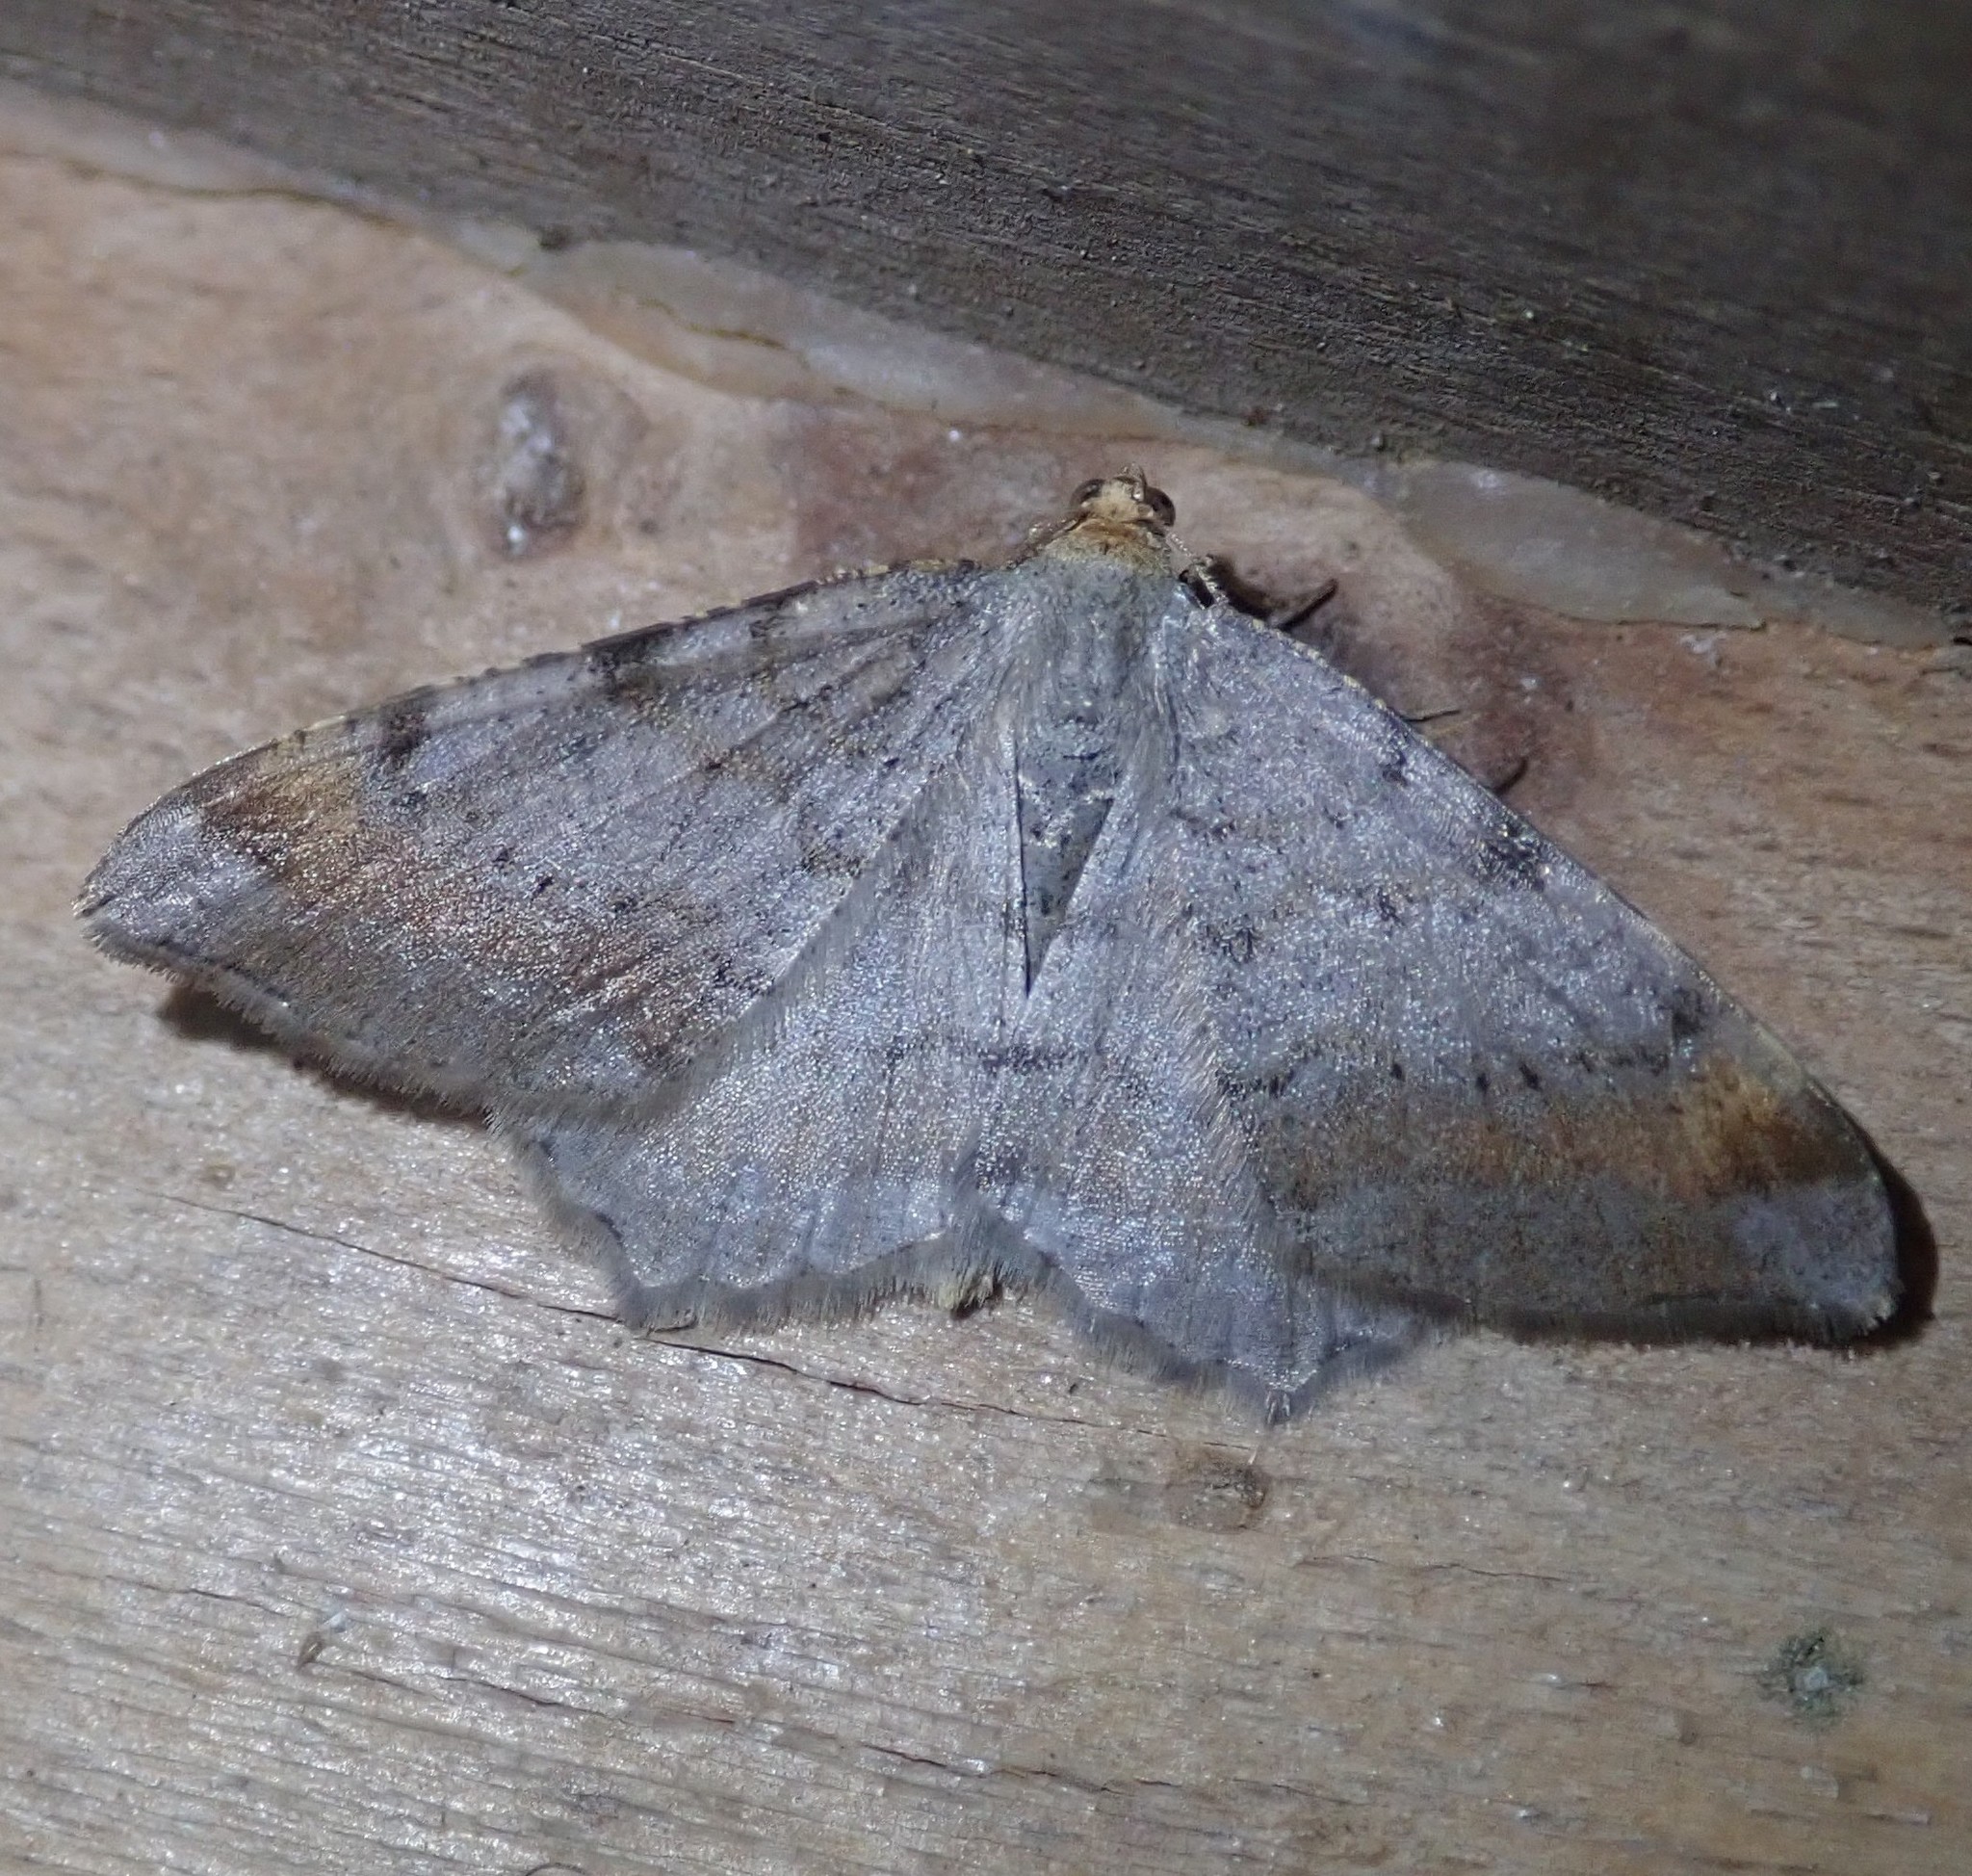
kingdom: Animalia
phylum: Arthropoda
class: Insecta
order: Lepidoptera
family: Geometridae
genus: Macaria
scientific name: Macaria liturata
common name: Tawny-barred angle
